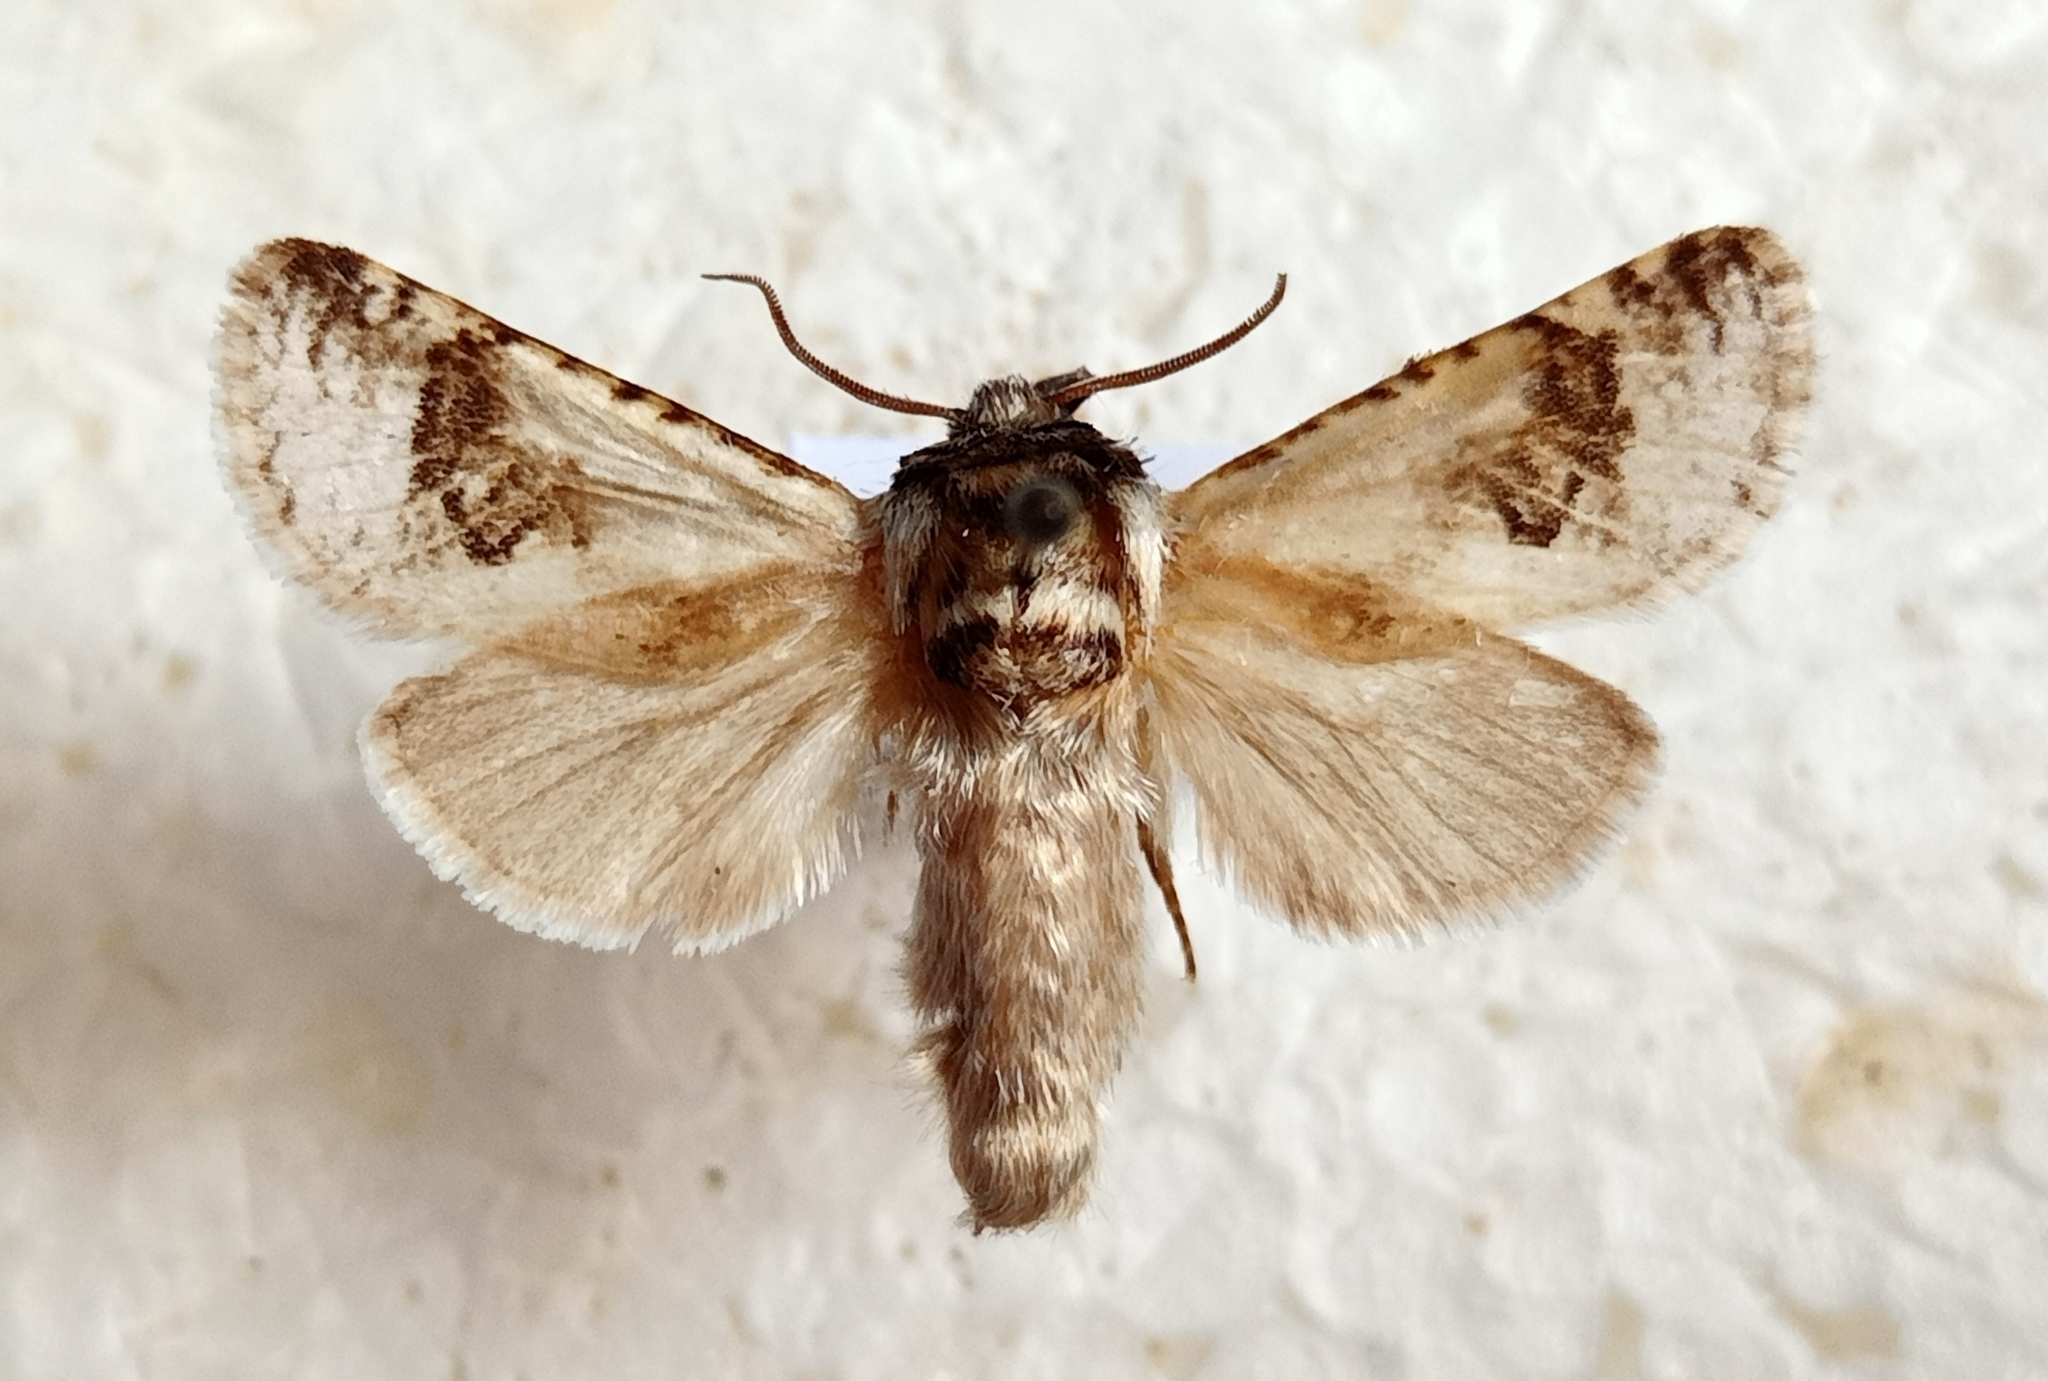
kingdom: Animalia
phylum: Arthropoda
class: Insecta
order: Lepidoptera
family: Cossidae
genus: Parahypopta
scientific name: Parahypopta caestrum
